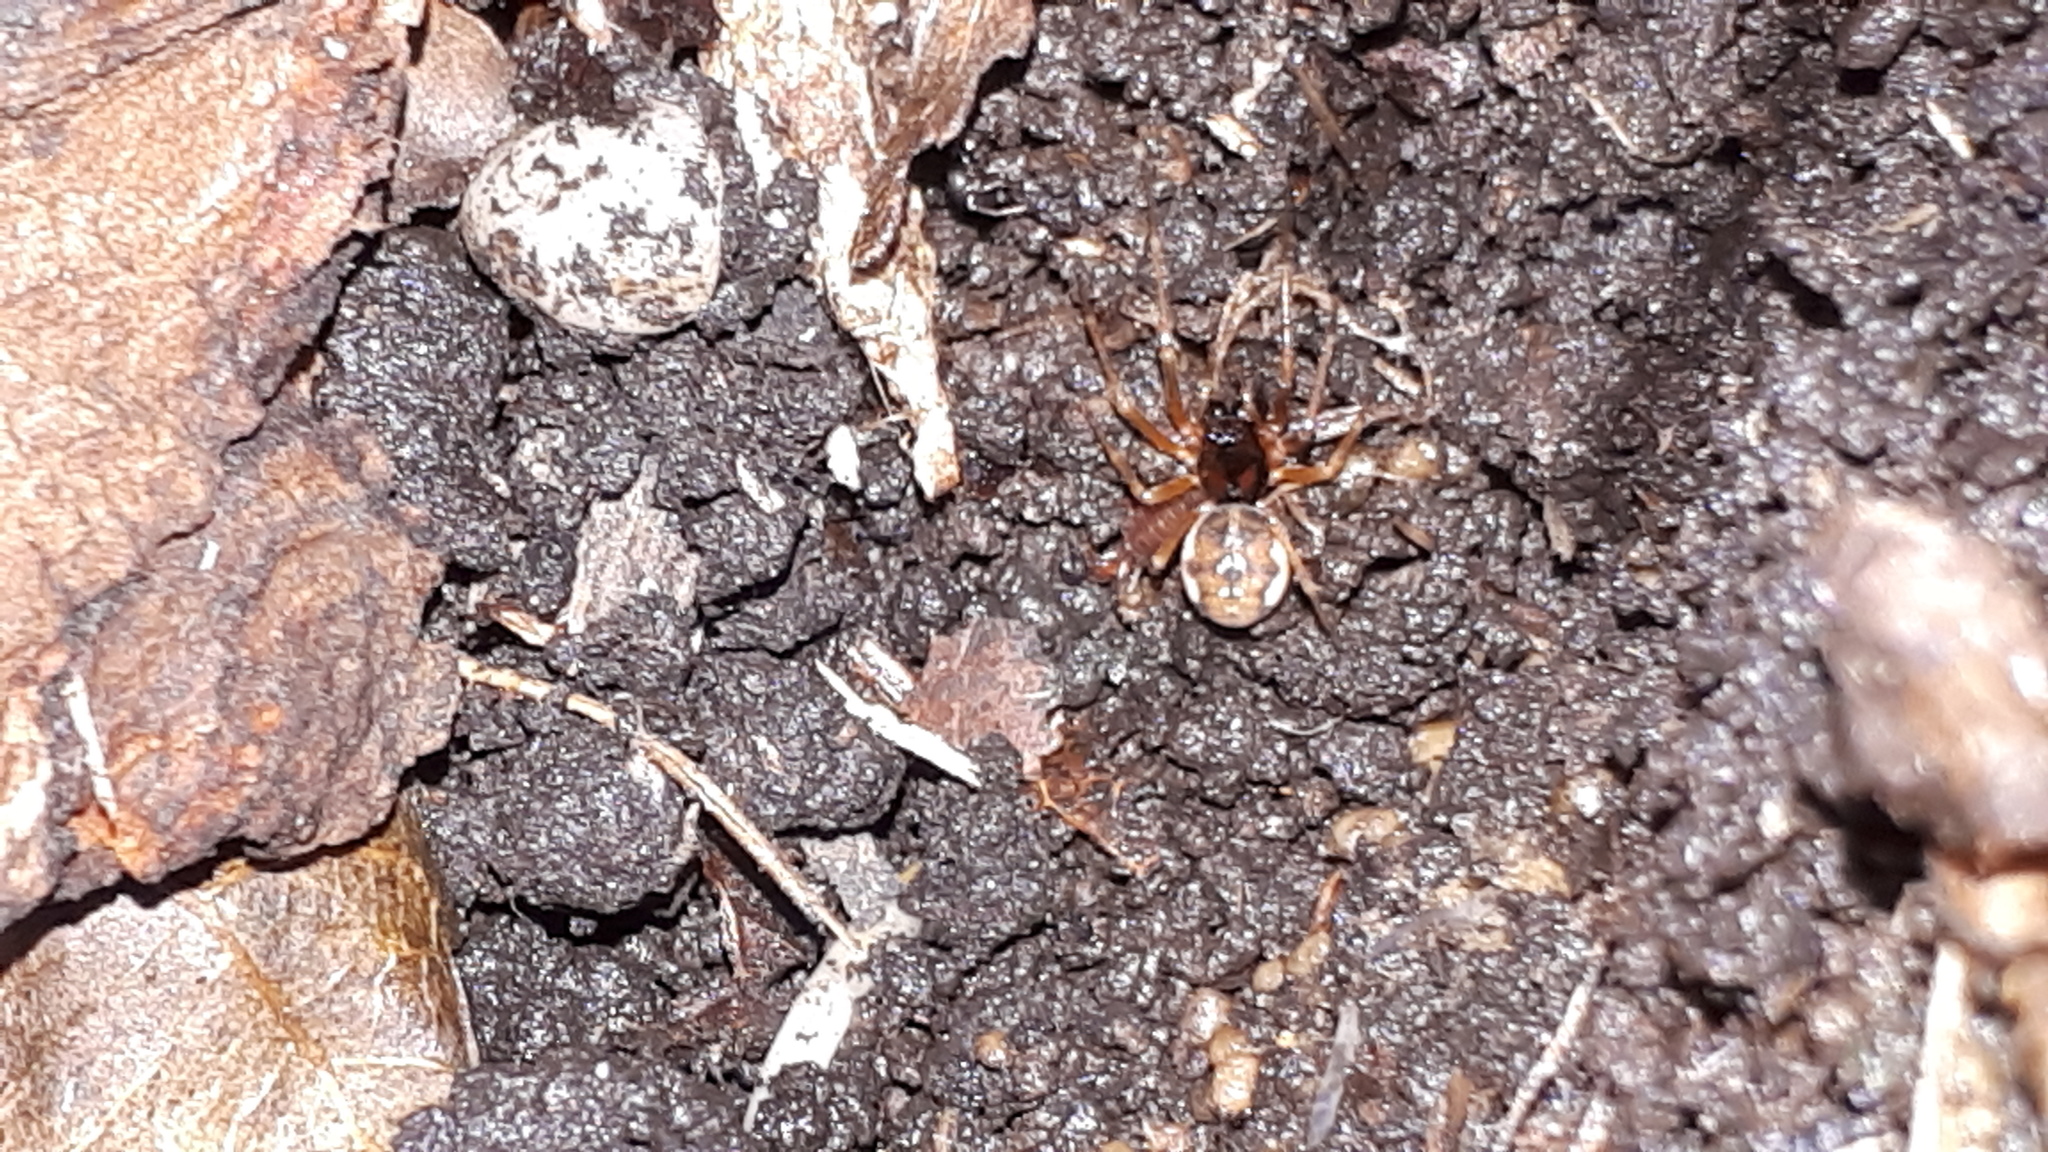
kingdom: Animalia
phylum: Arthropoda
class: Arachnida
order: Araneae
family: Tetragnathidae
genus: Pachygnatha
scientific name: Pachygnatha listeri
